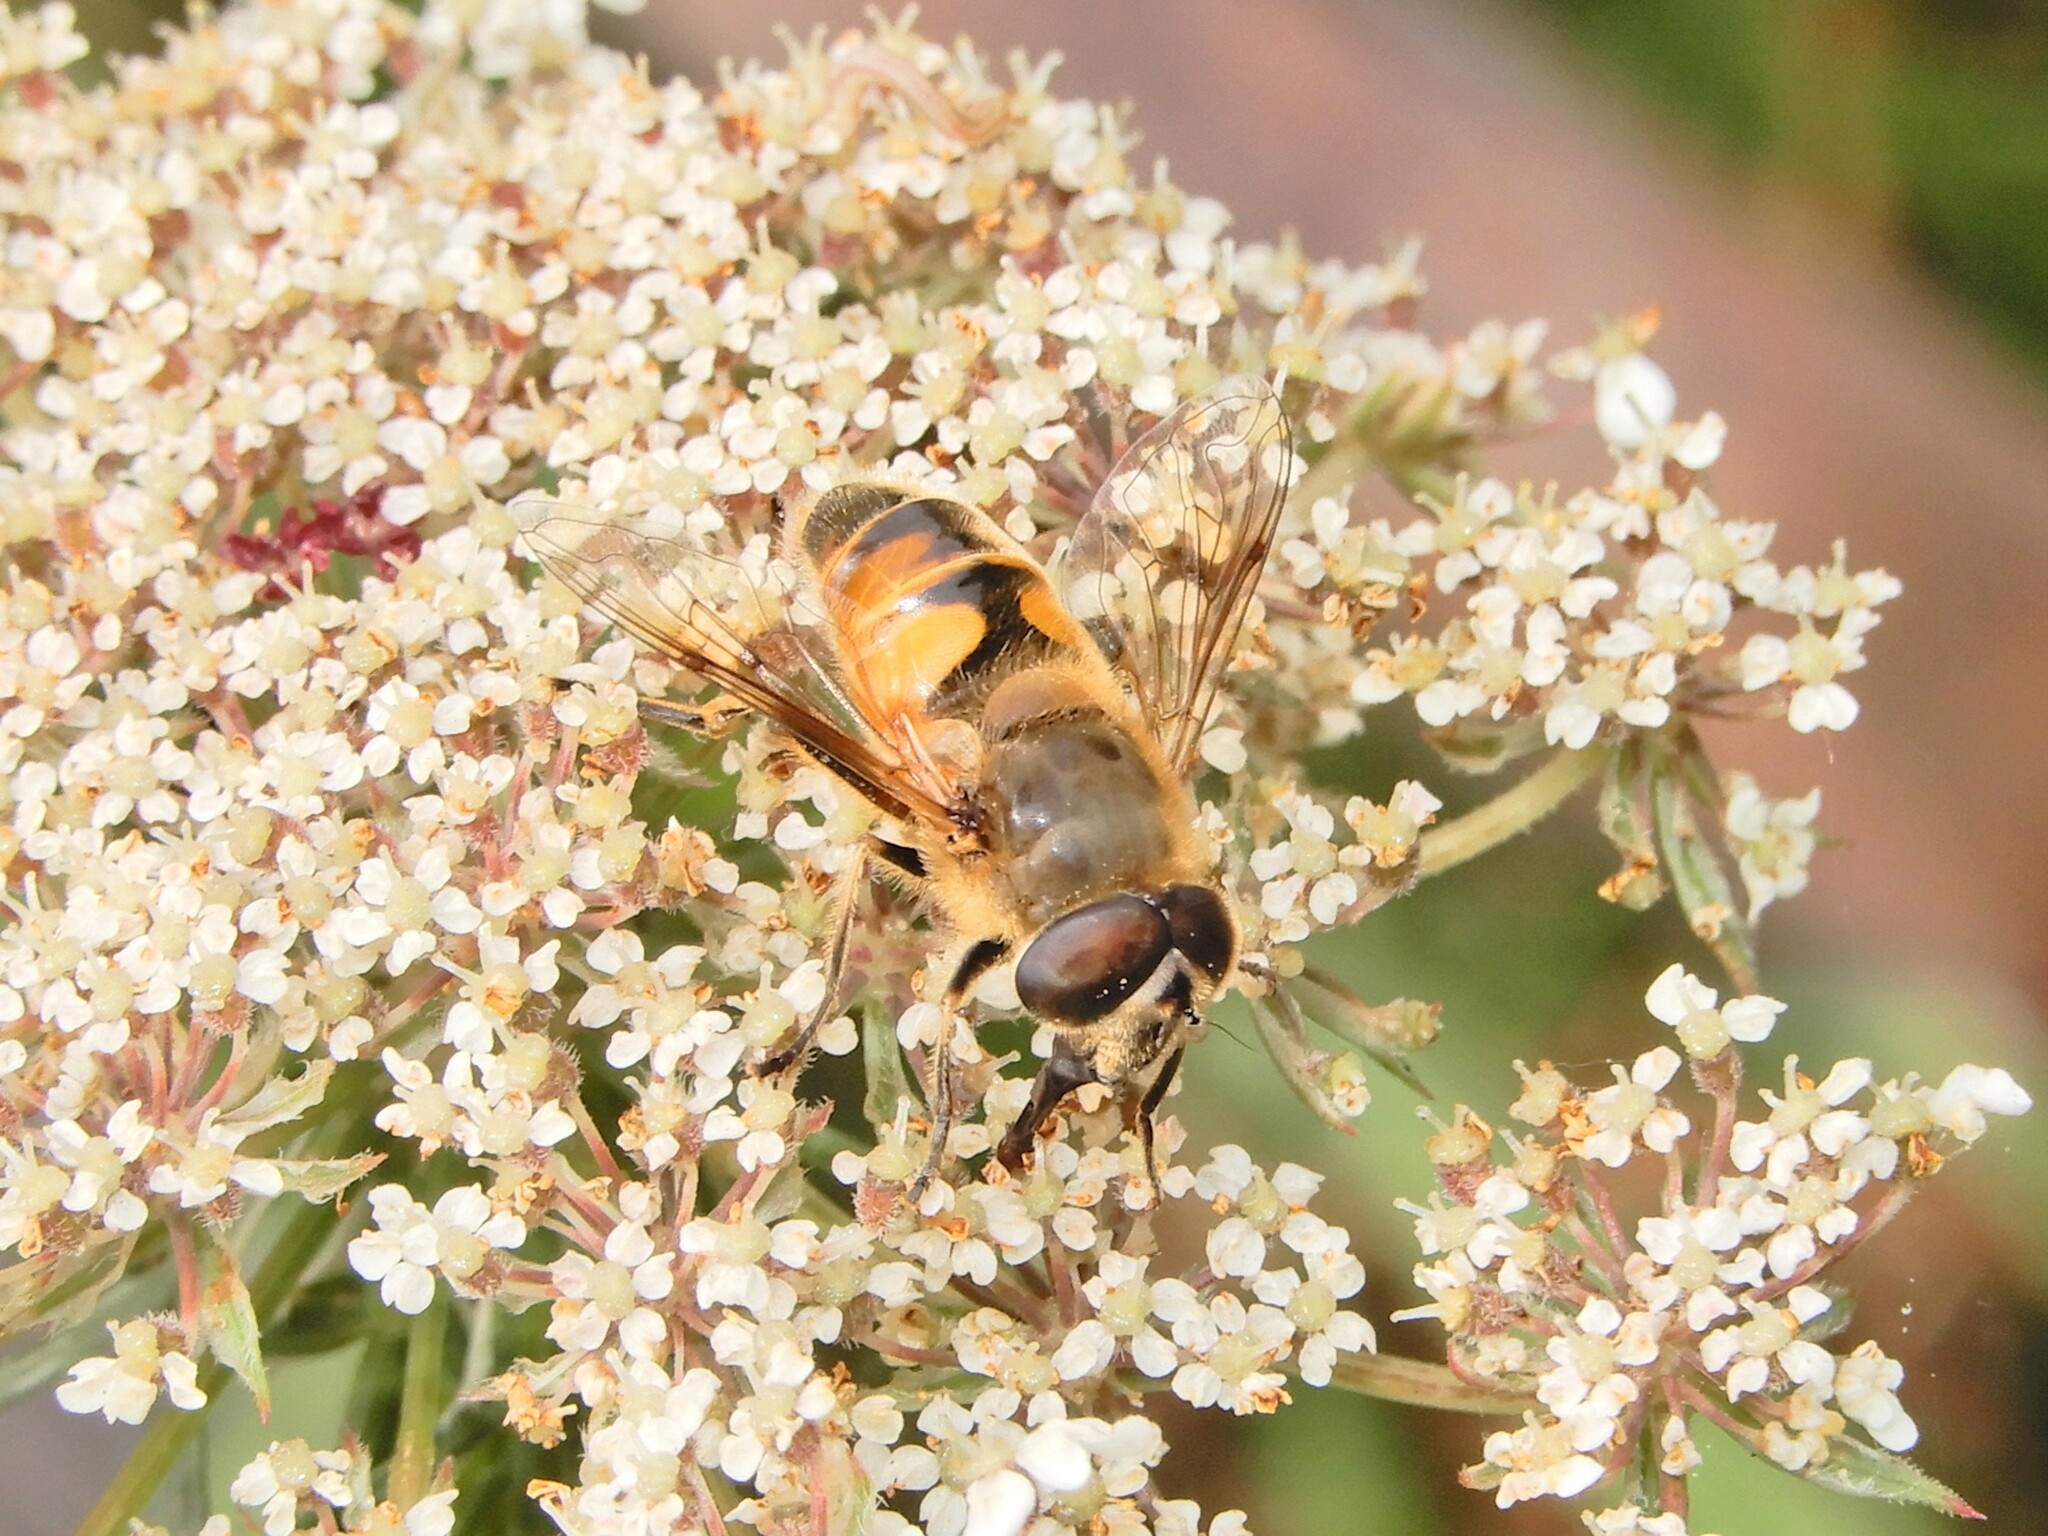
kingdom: Animalia
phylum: Arthropoda
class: Insecta
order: Diptera
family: Syrphidae
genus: Eristalis
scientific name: Eristalis tenax
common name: Drone fly
